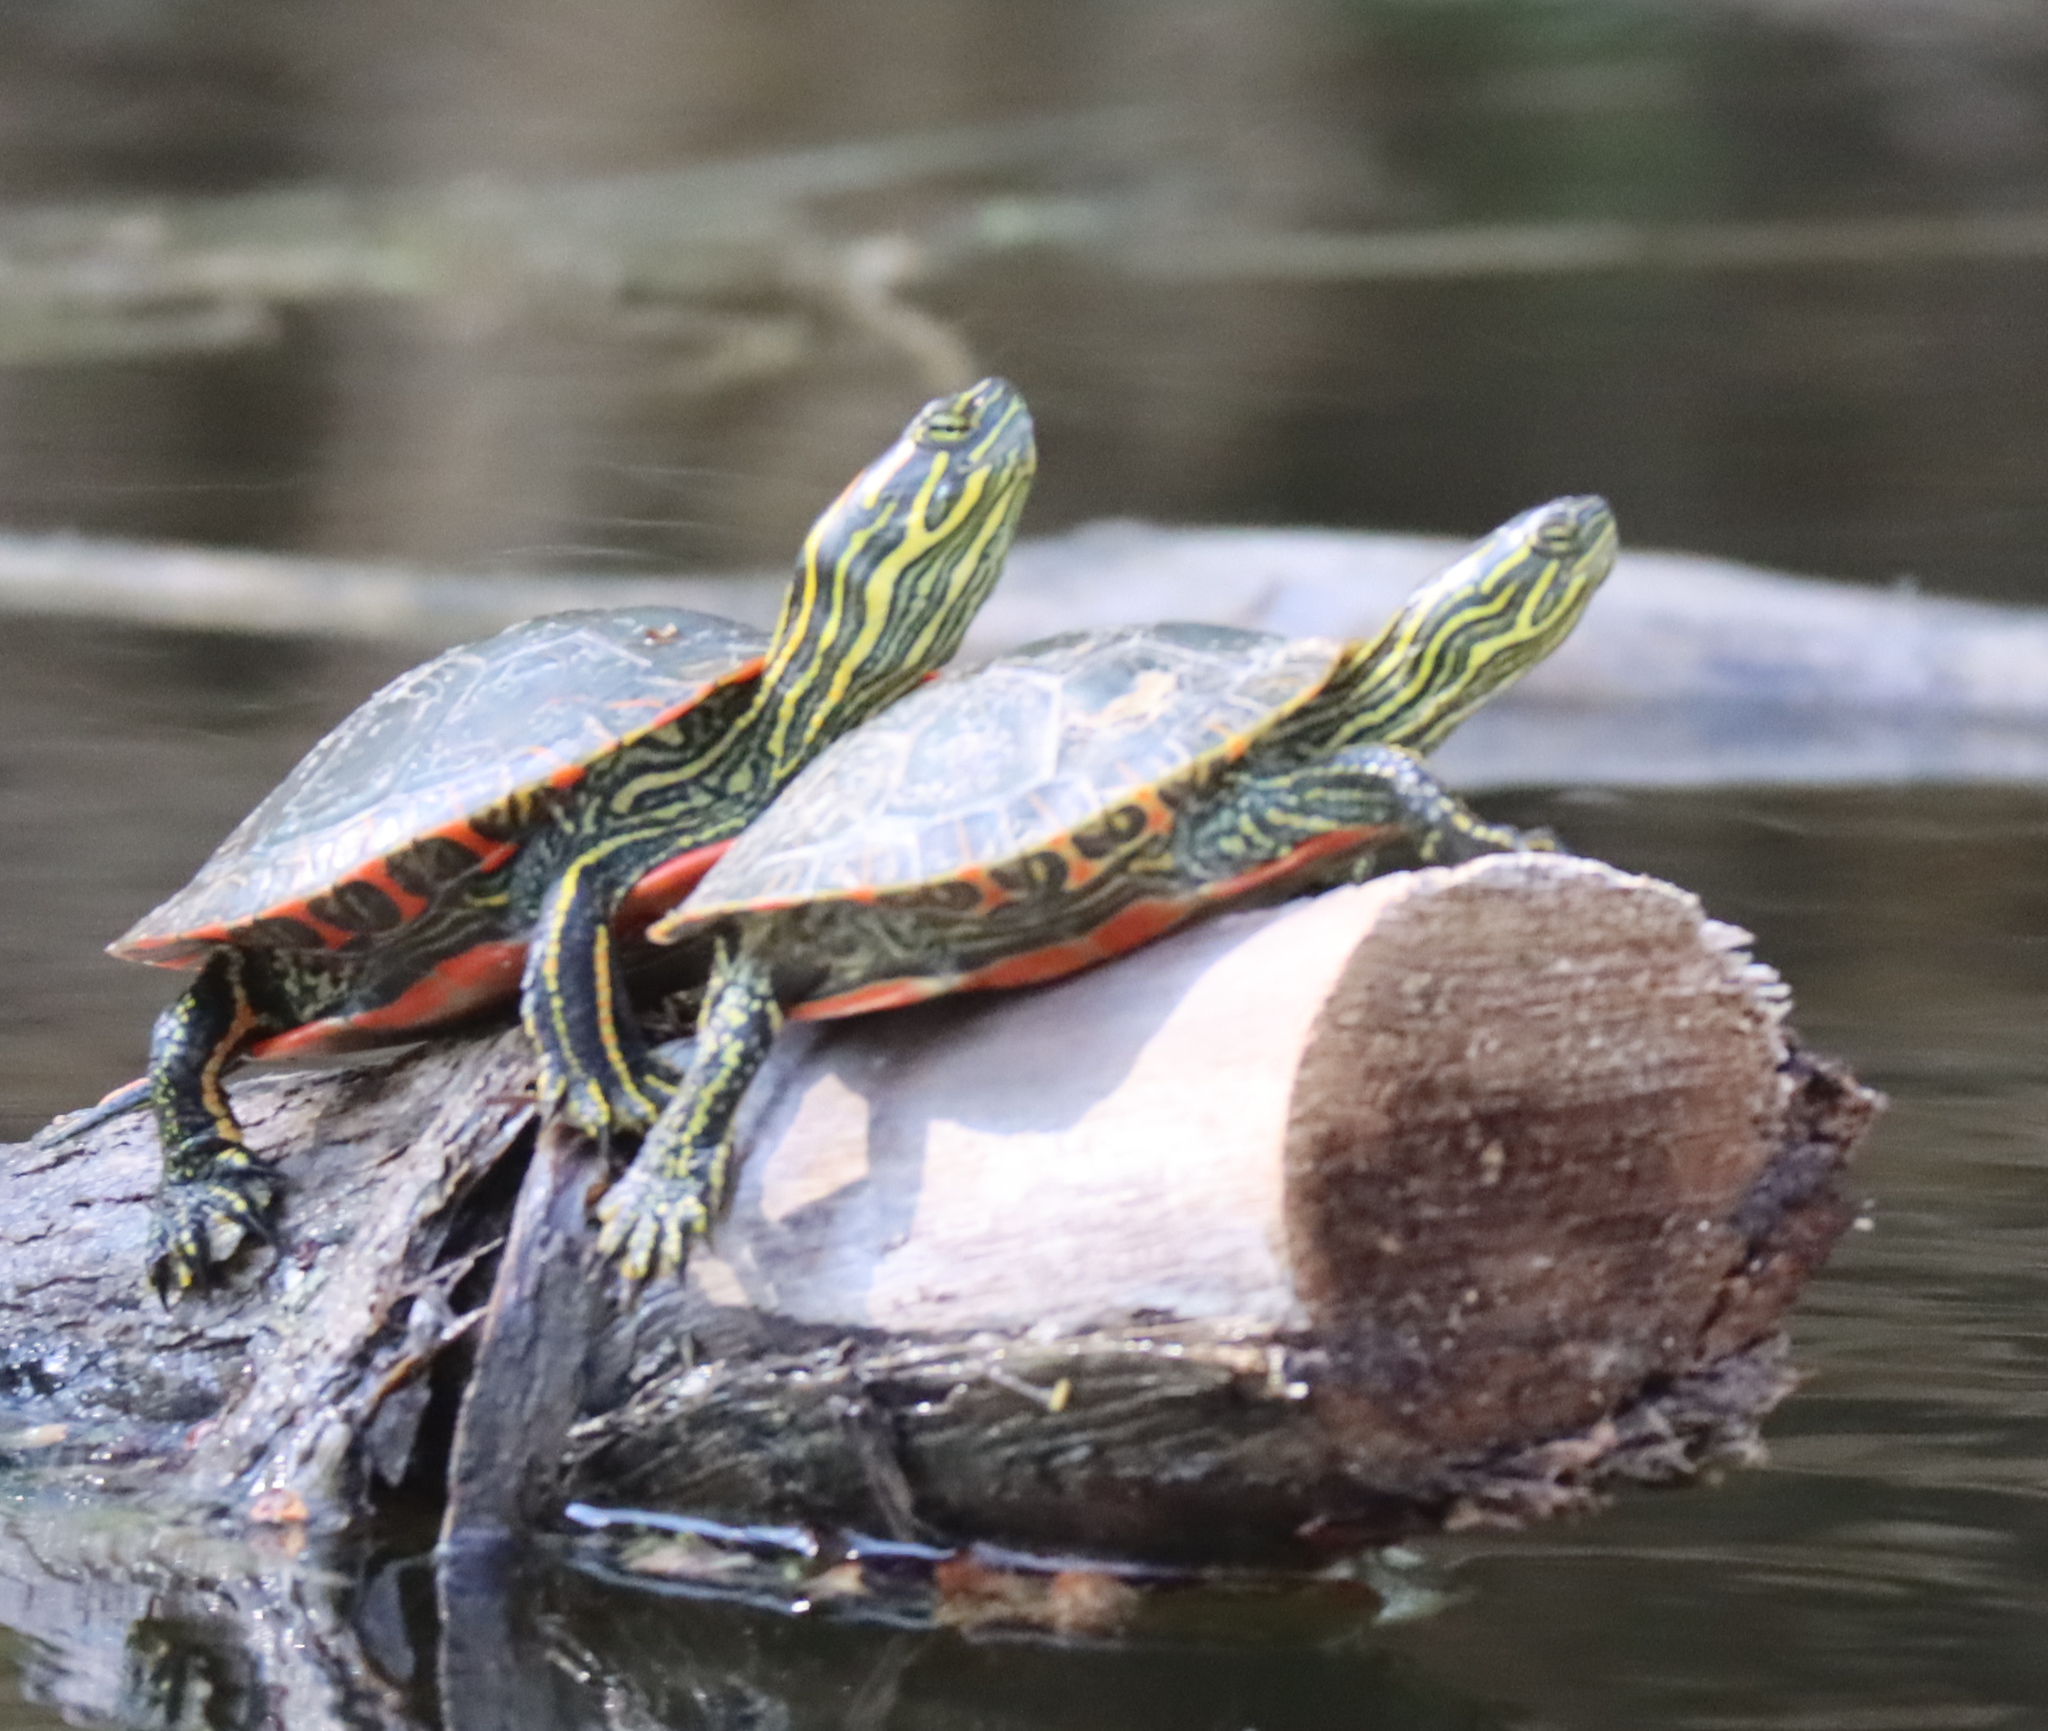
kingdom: Animalia
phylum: Chordata
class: Testudines
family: Emydidae
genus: Chrysemys
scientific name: Chrysemys picta
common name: Painted turtle
